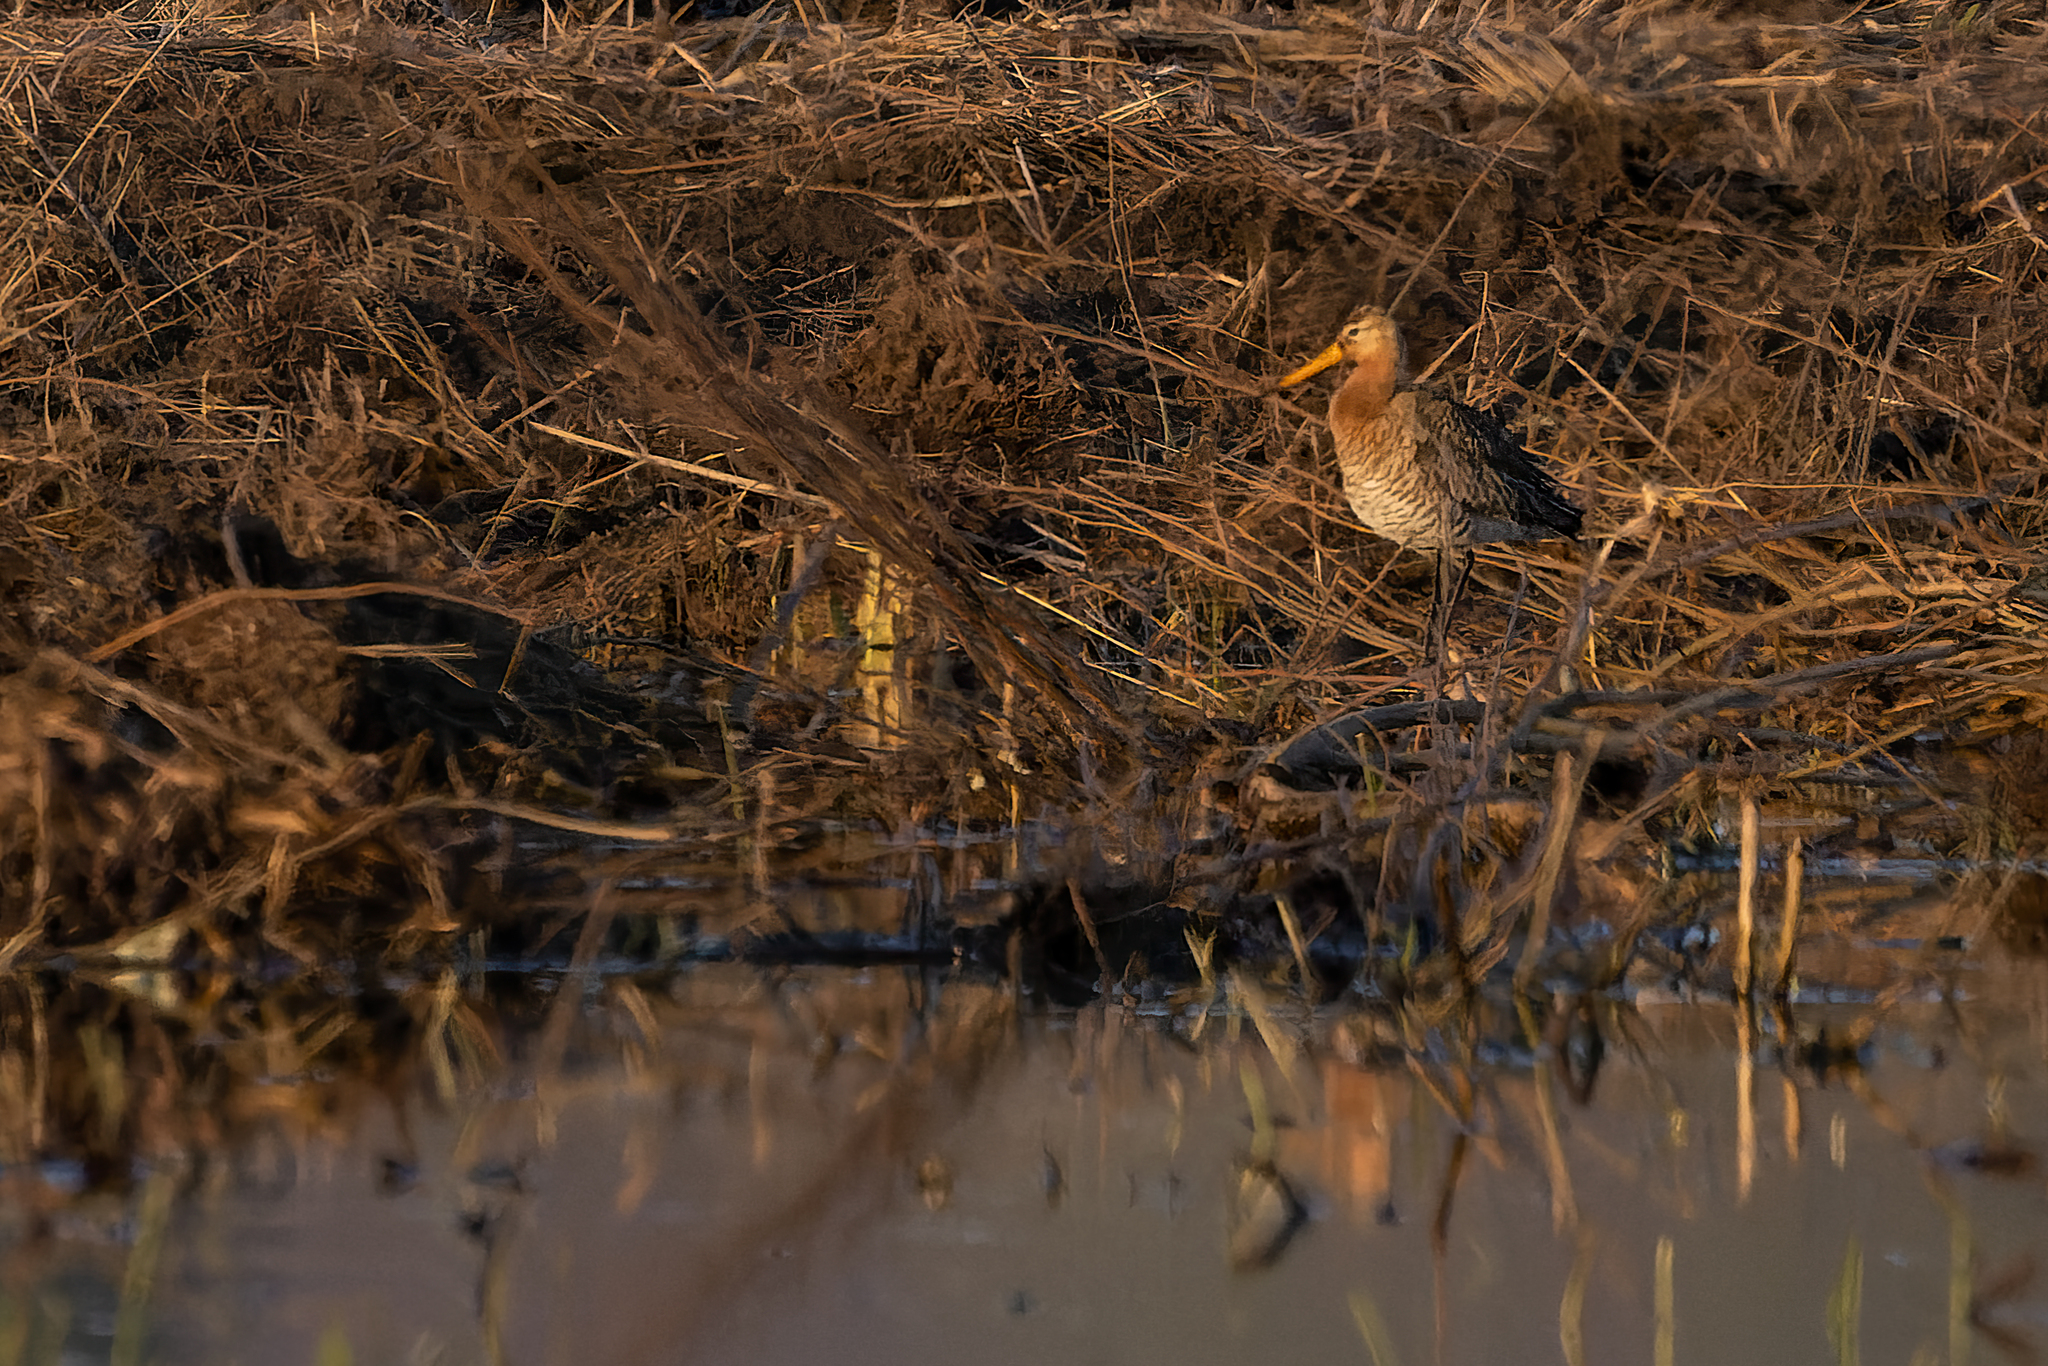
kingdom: Animalia
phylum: Chordata
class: Aves
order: Charadriiformes
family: Scolopacidae
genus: Limosa
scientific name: Limosa limosa
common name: Black-tailed godwit
